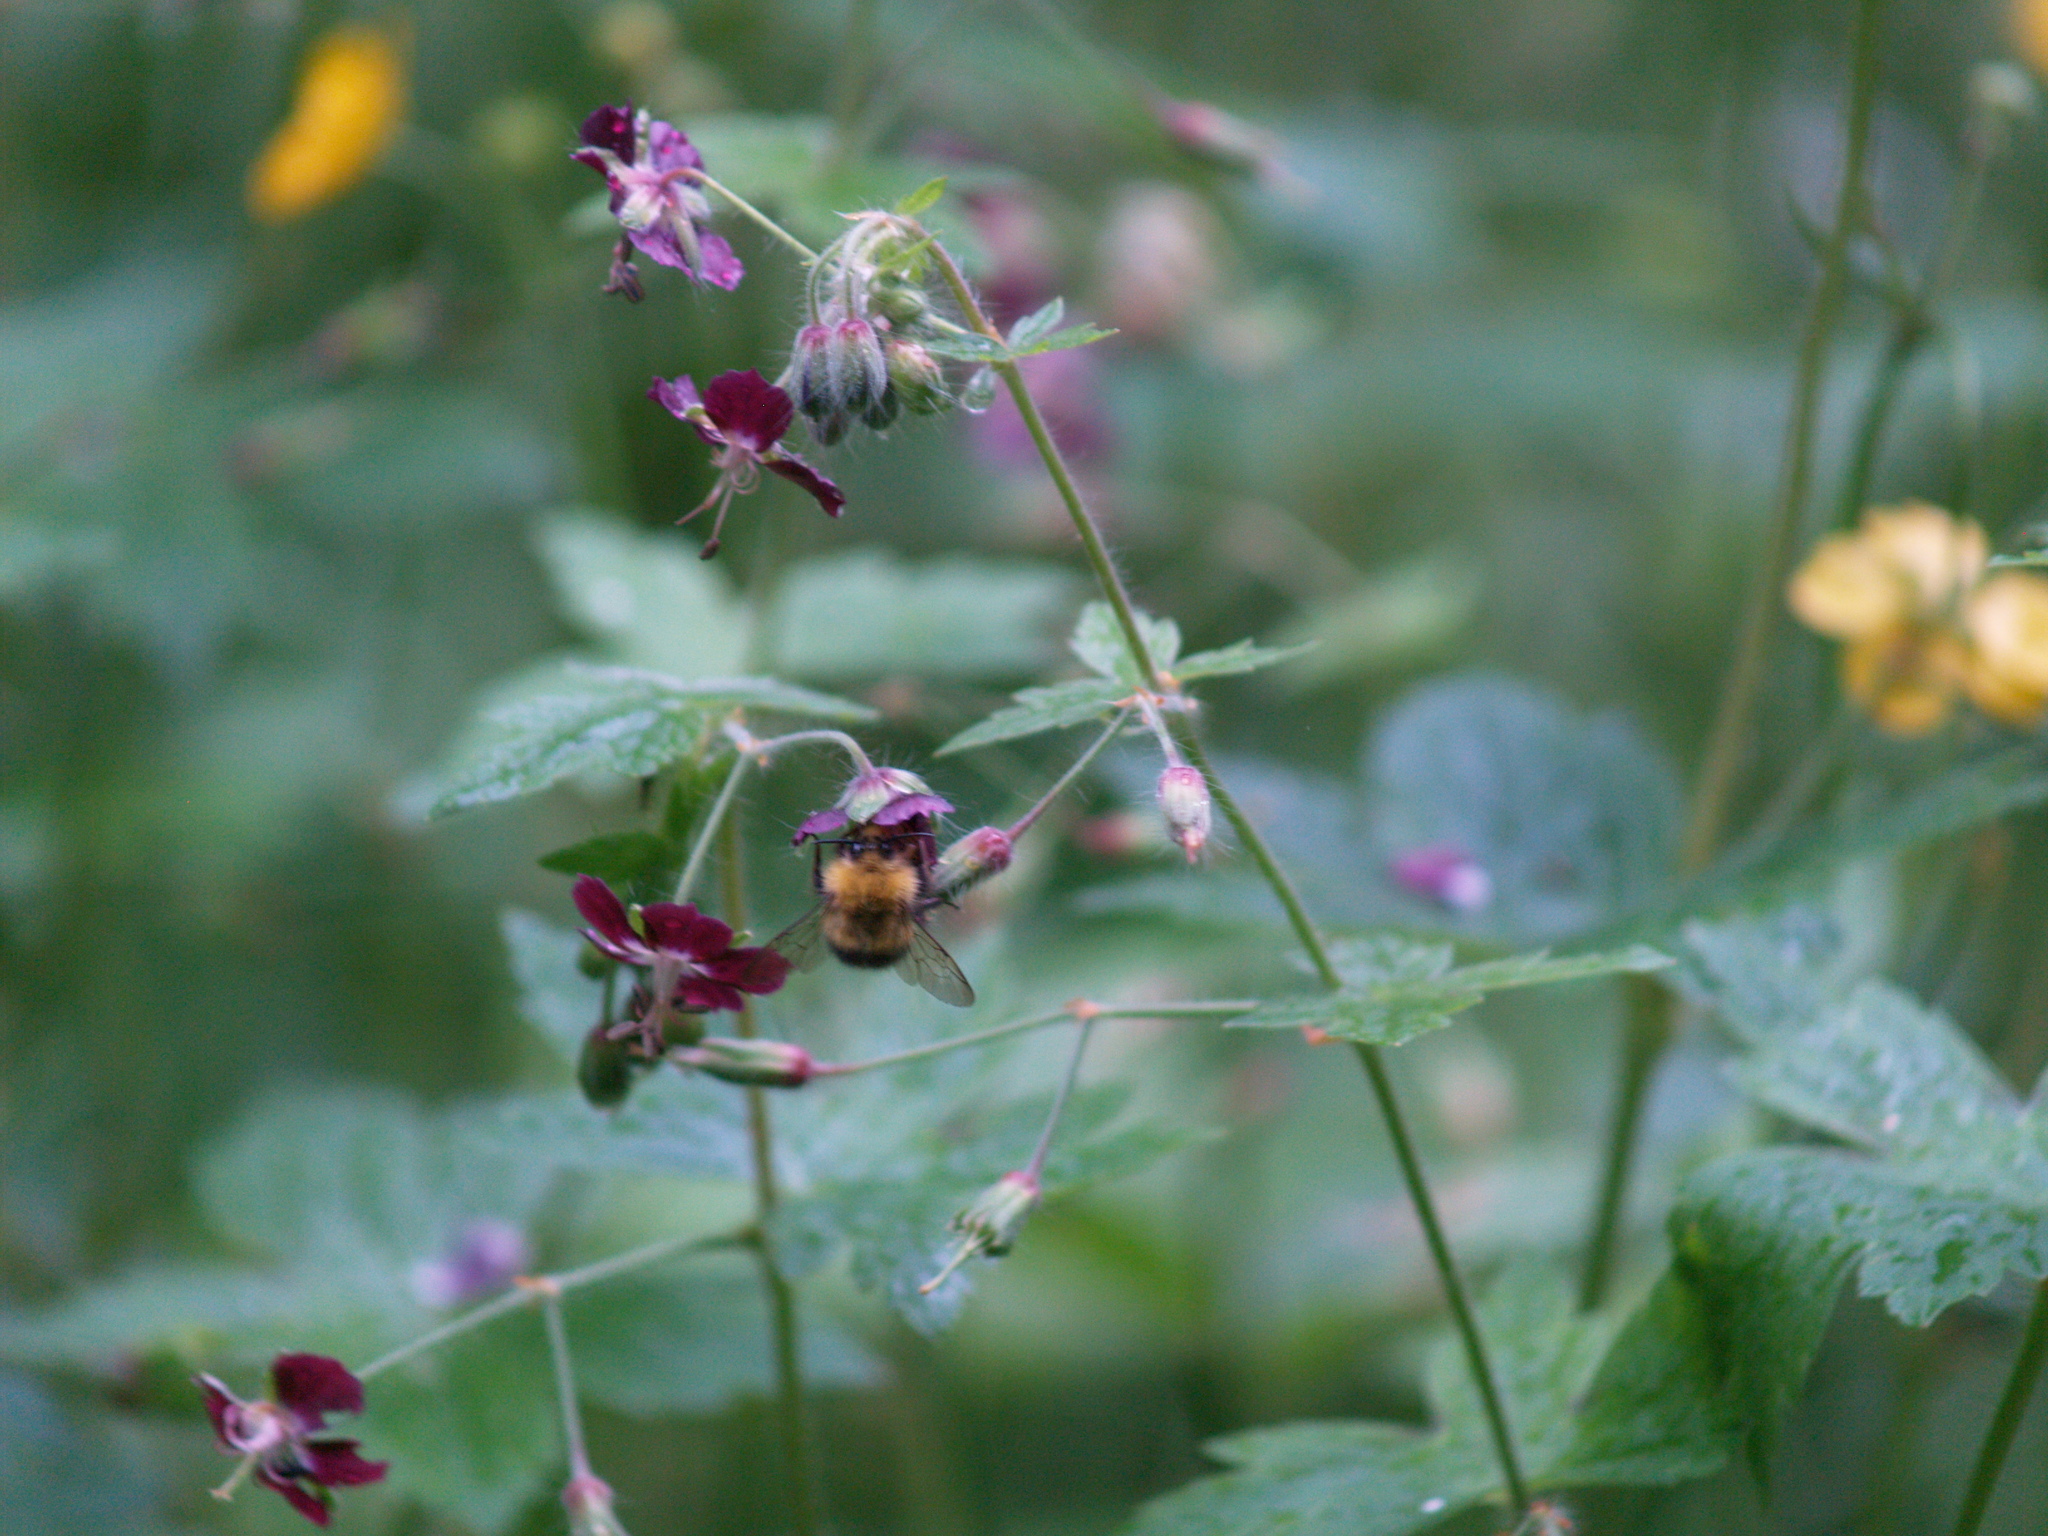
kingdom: Animalia
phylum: Arthropoda
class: Insecta
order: Hymenoptera
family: Apidae
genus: Bombus
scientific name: Bombus pratorum
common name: Early humble-bee
